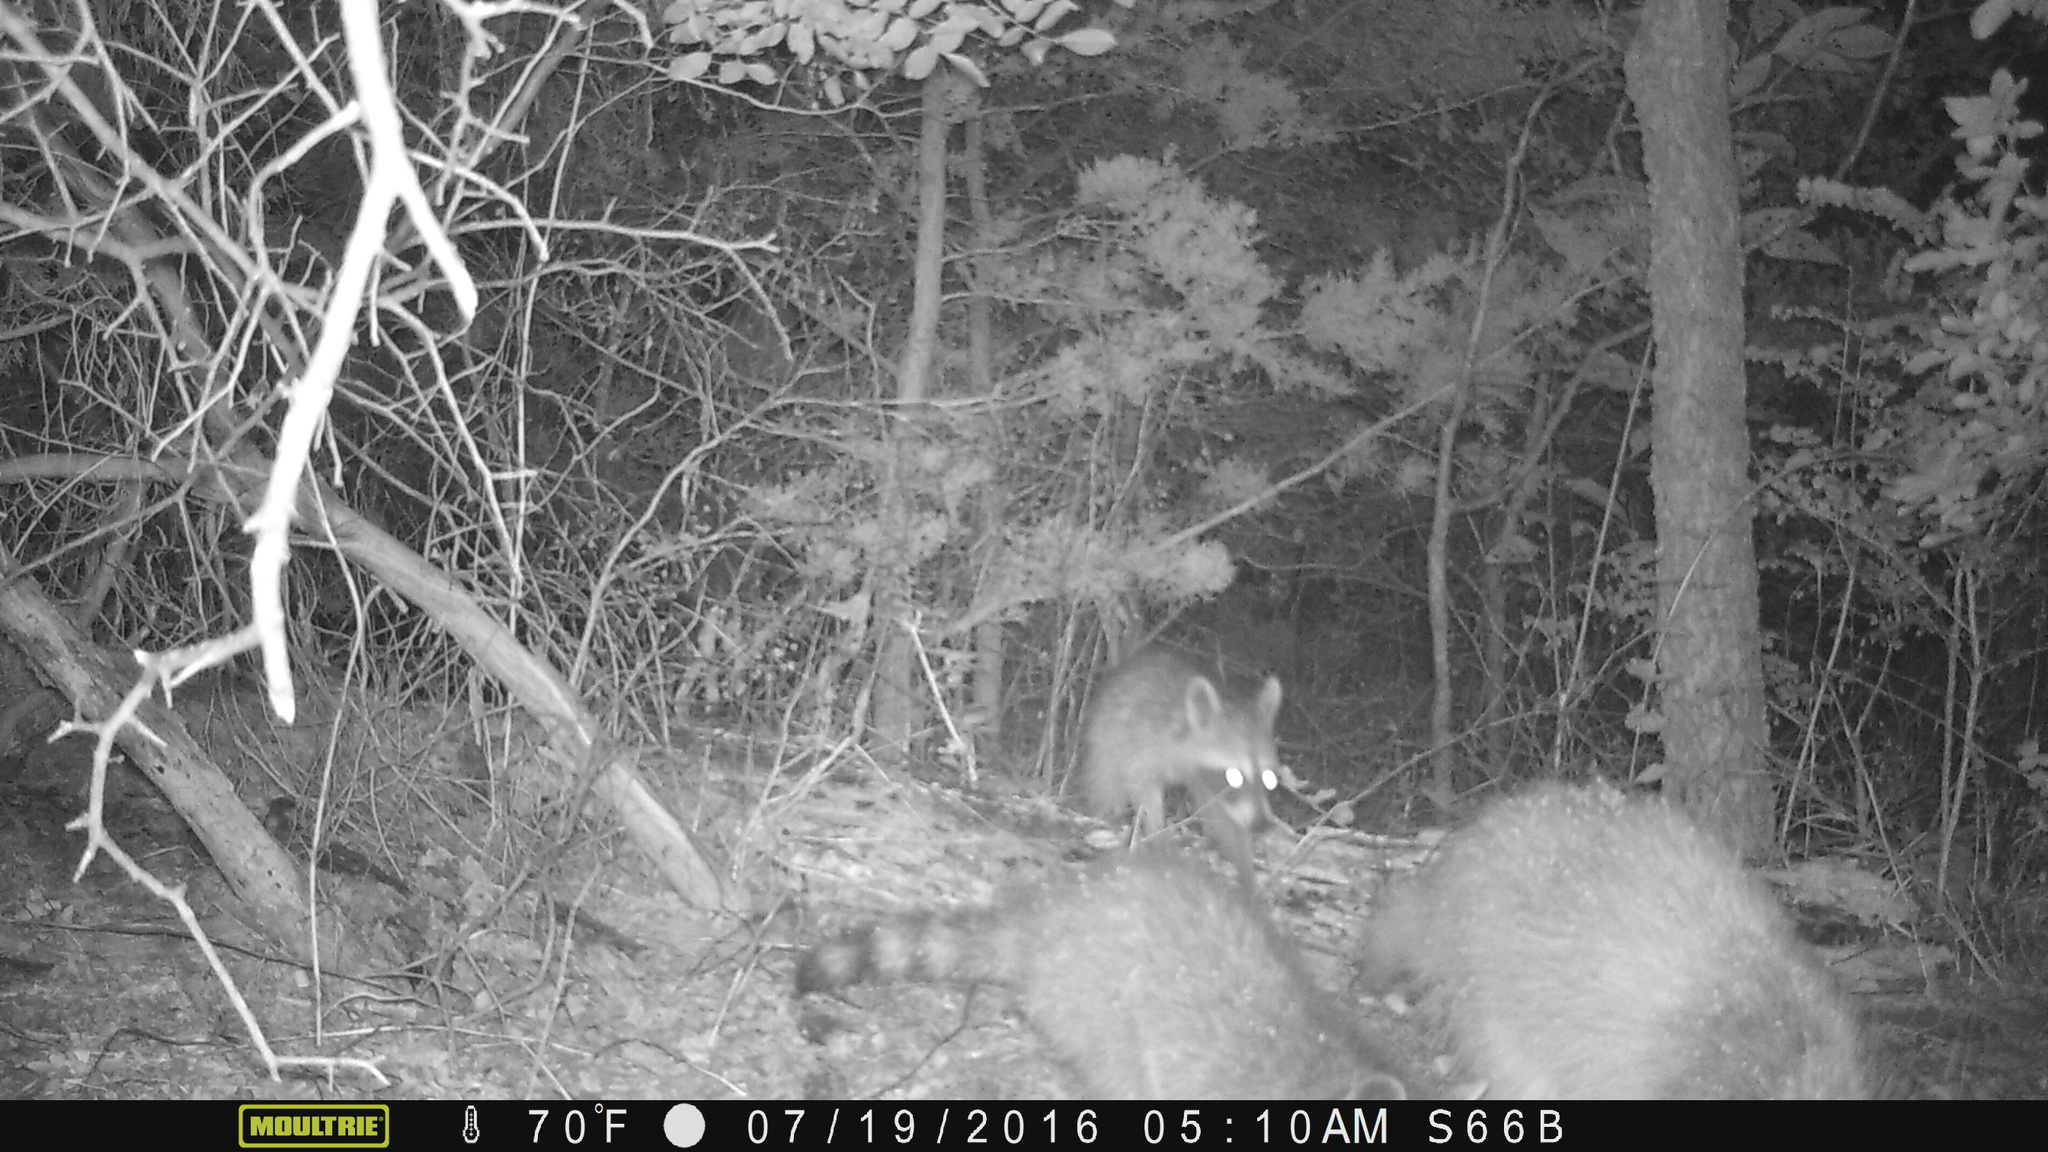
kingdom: Animalia
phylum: Chordata
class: Mammalia
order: Carnivora
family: Procyonidae
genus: Procyon
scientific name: Procyon lotor
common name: Raccoon
